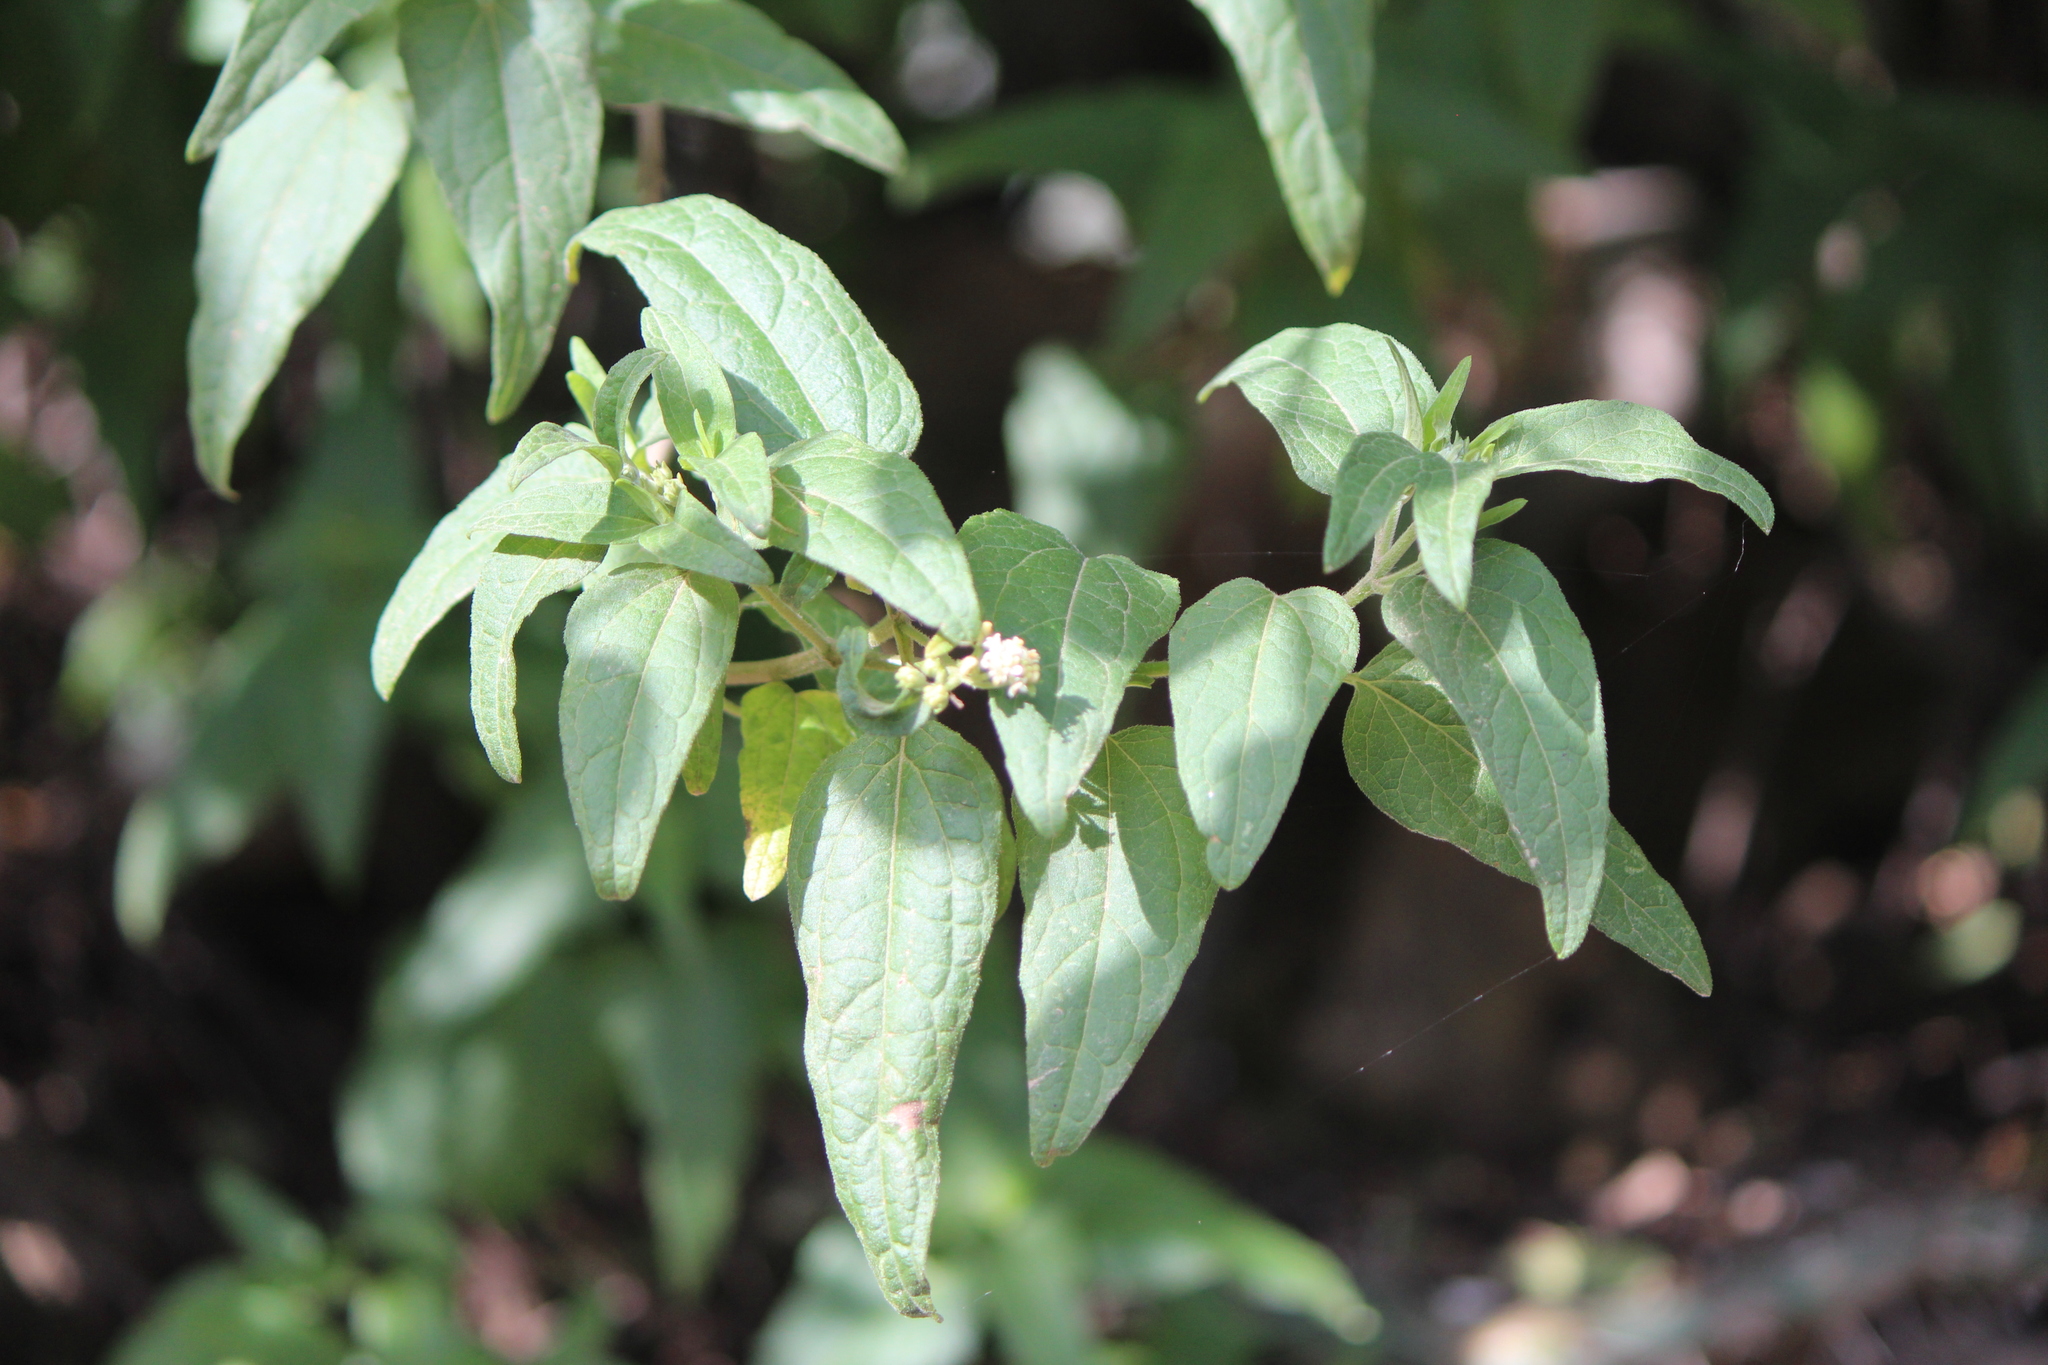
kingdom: Plantae
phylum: Tracheophyta
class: Magnoliopsida
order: Asterales
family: Asteraceae
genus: Montanoa
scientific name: Montanoa tomentosa
